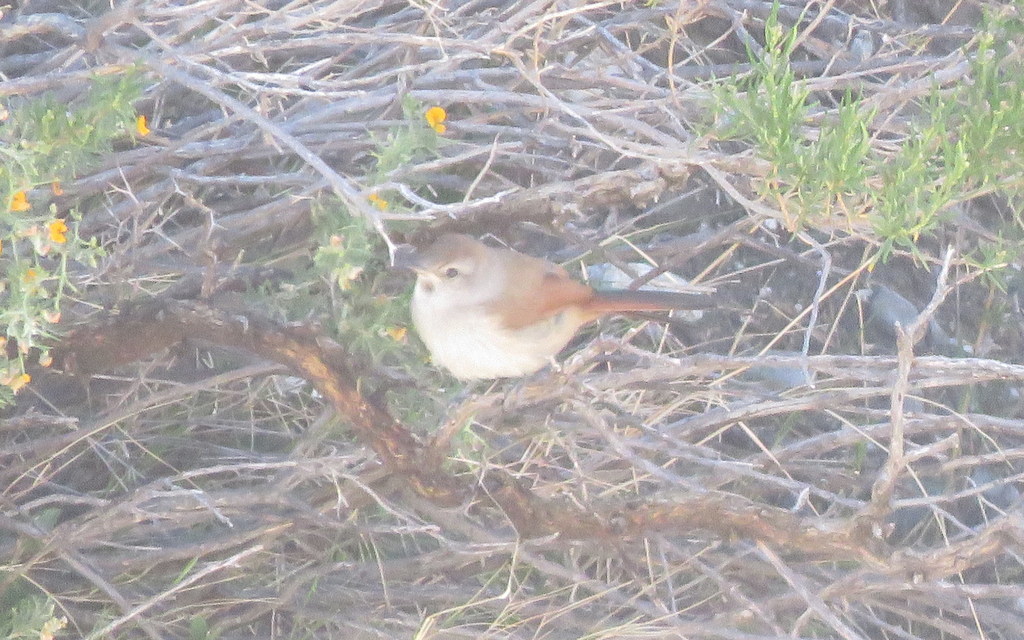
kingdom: Animalia
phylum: Chordata
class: Aves
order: Passeriformes
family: Furnariidae
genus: Asthenes
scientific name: Asthenes dorbignyi
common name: Rusty-vented canastero
